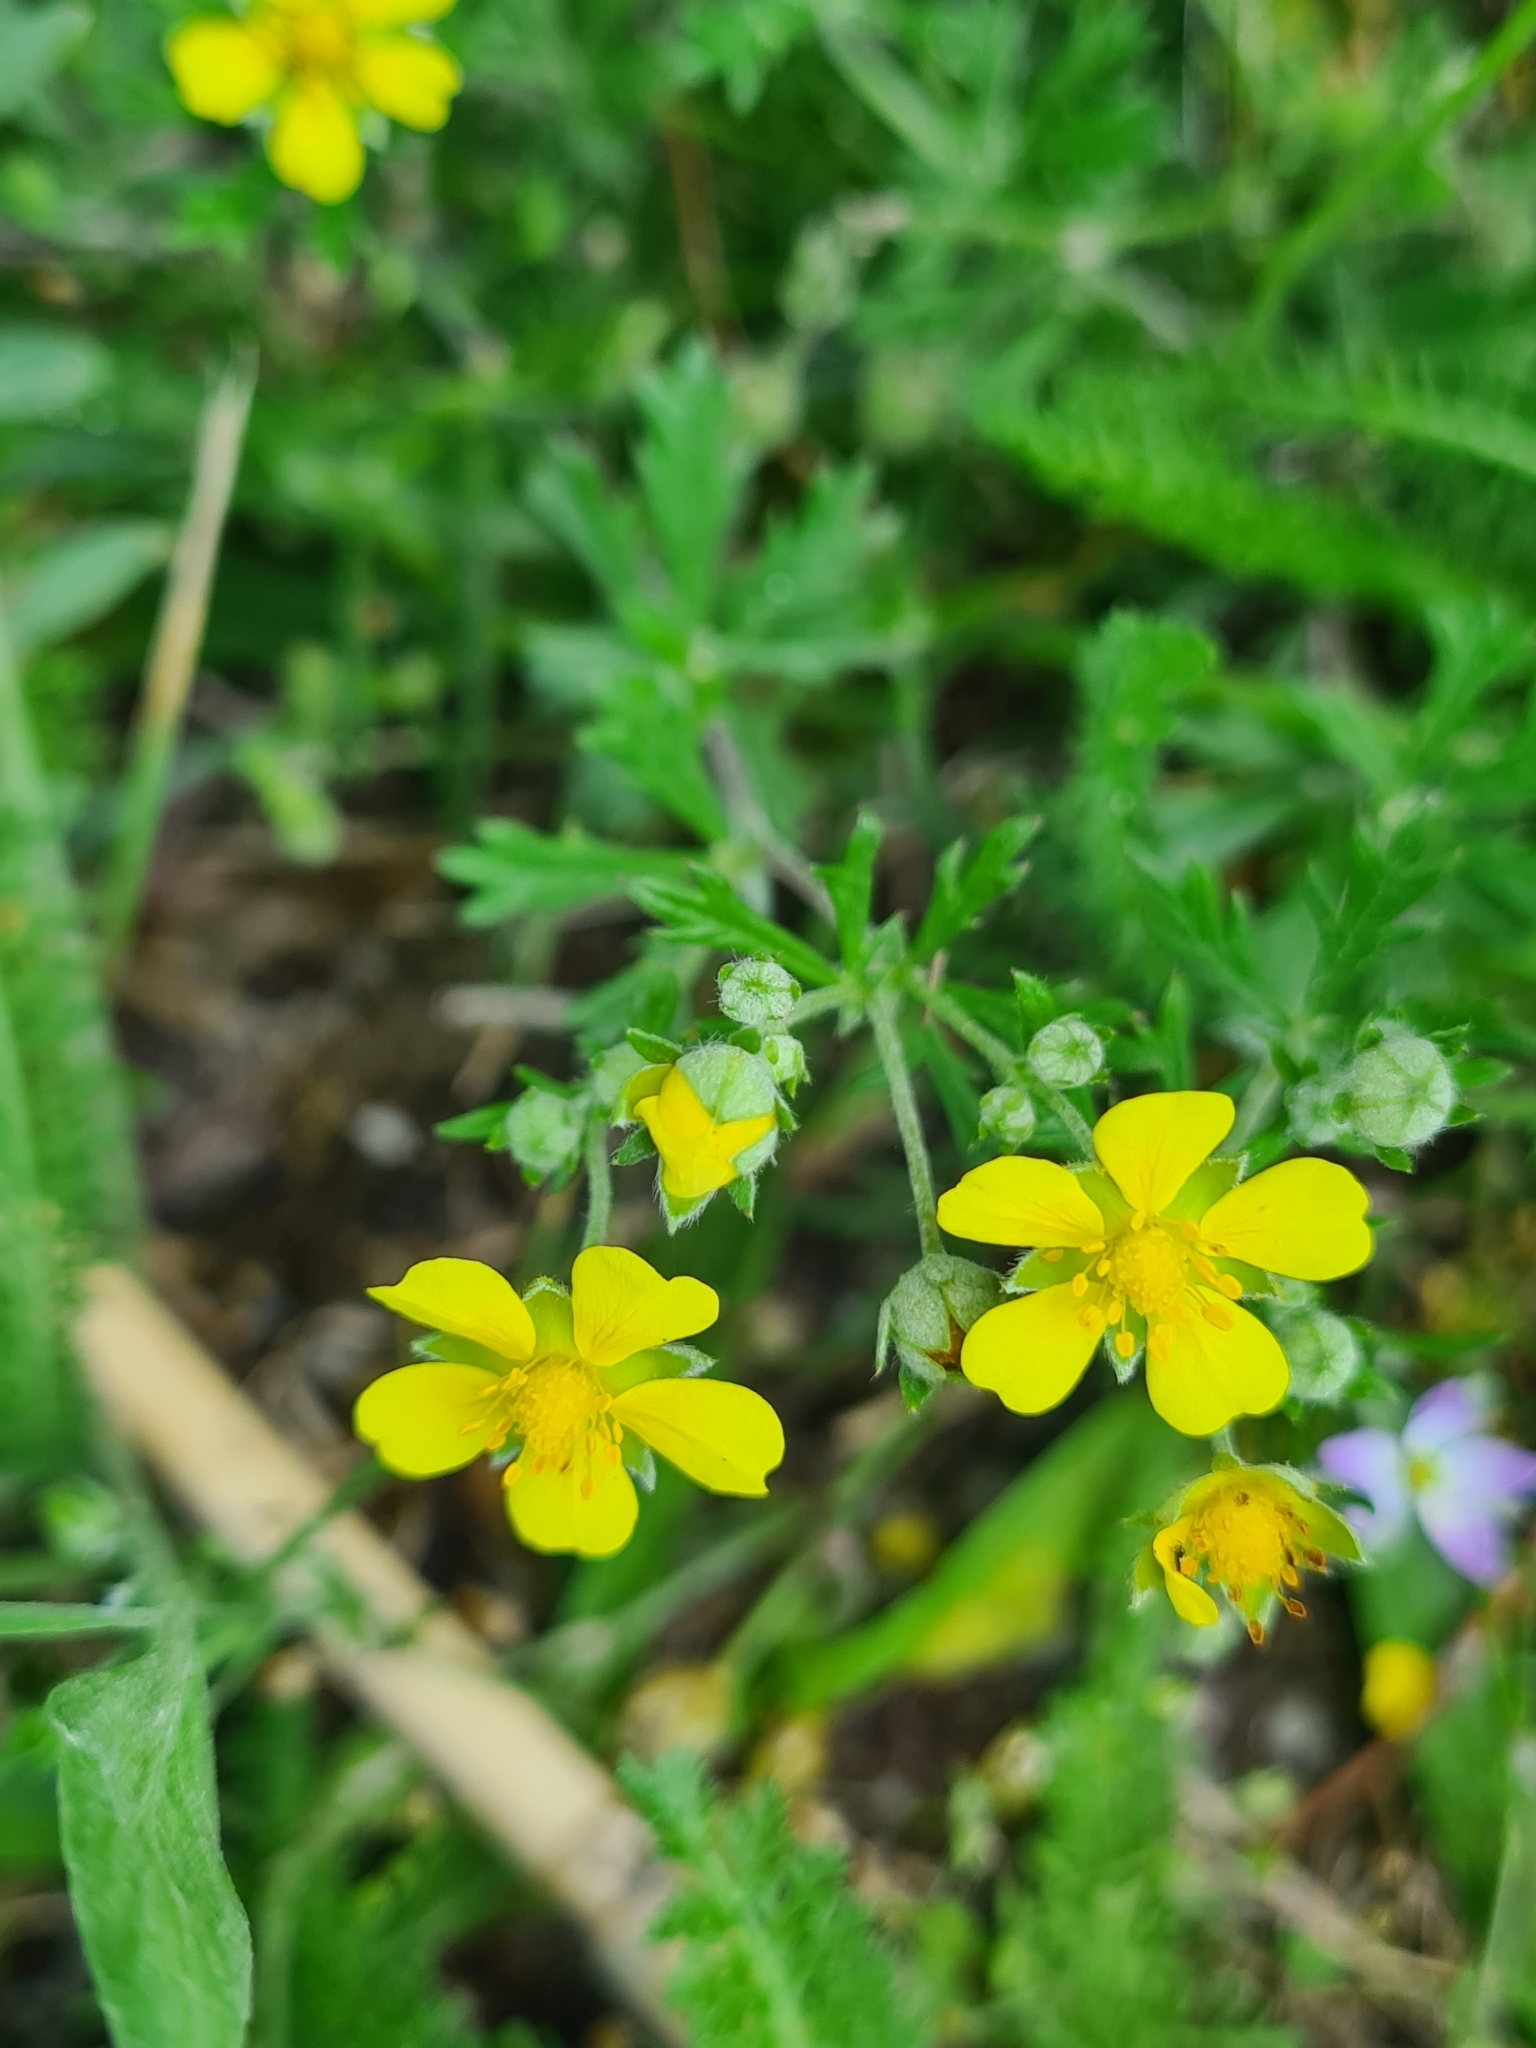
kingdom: Plantae
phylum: Tracheophyta
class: Magnoliopsida
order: Rosales
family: Rosaceae
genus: Potentilla
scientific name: Potentilla argentea
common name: Hoary cinquefoil
